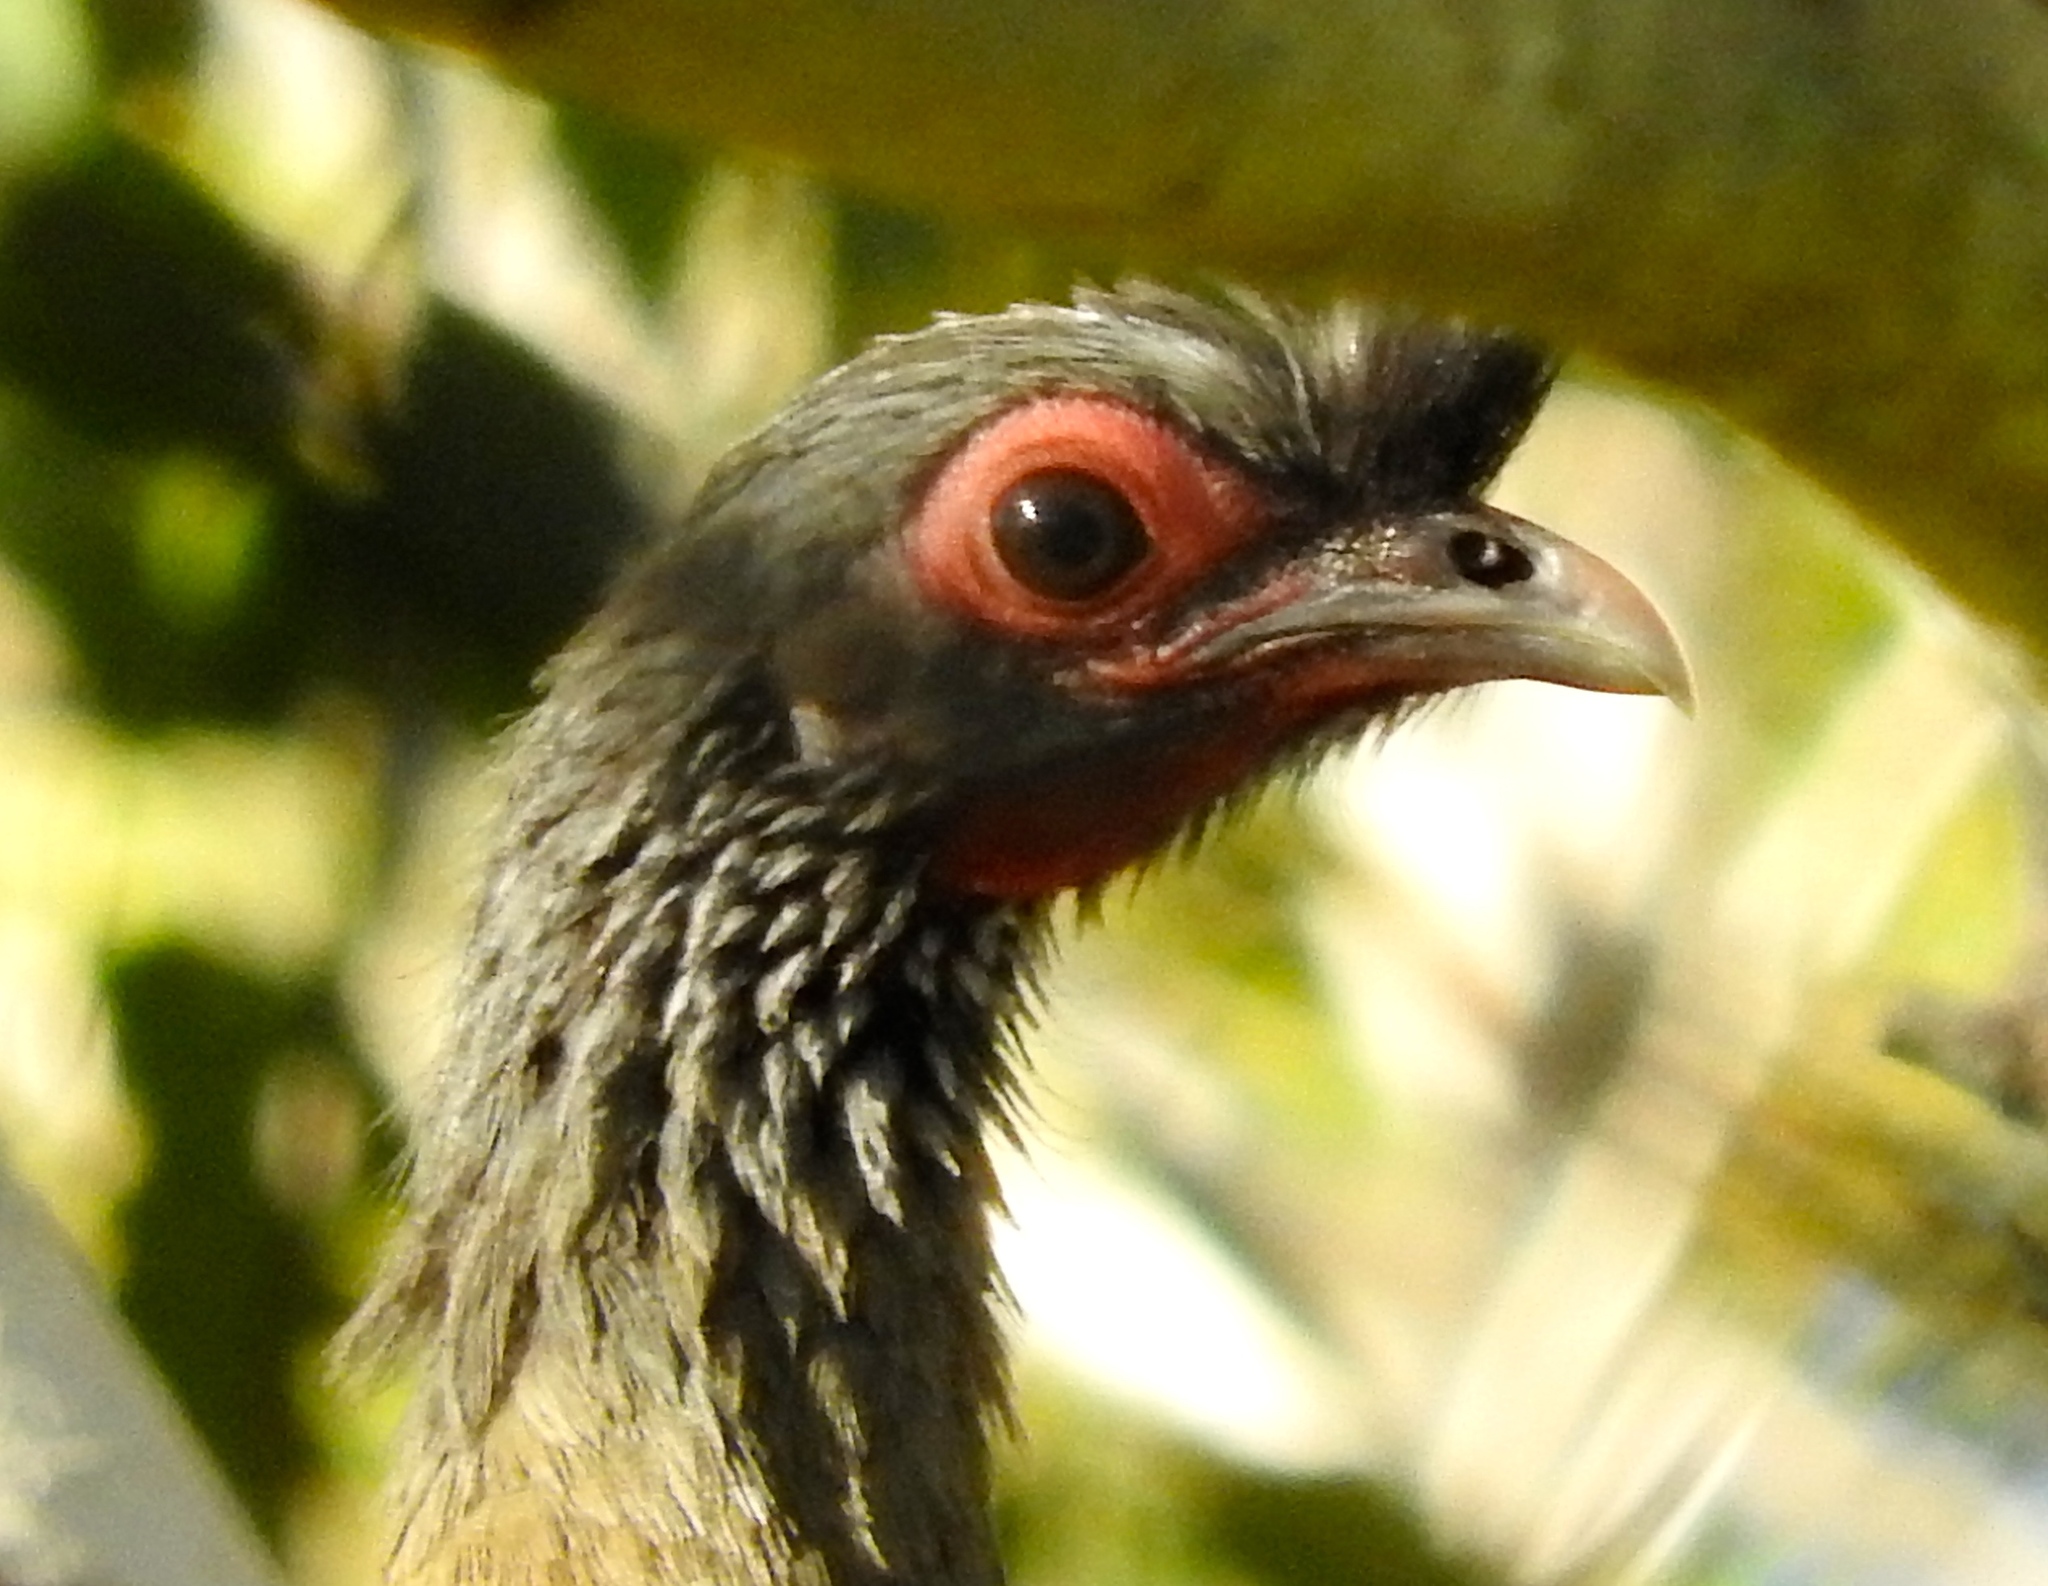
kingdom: Animalia
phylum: Chordata
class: Aves
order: Galliformes
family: Cracidae
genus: Ortalis
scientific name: Ortalis wagleri
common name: Rufous-bellied chachalaca
